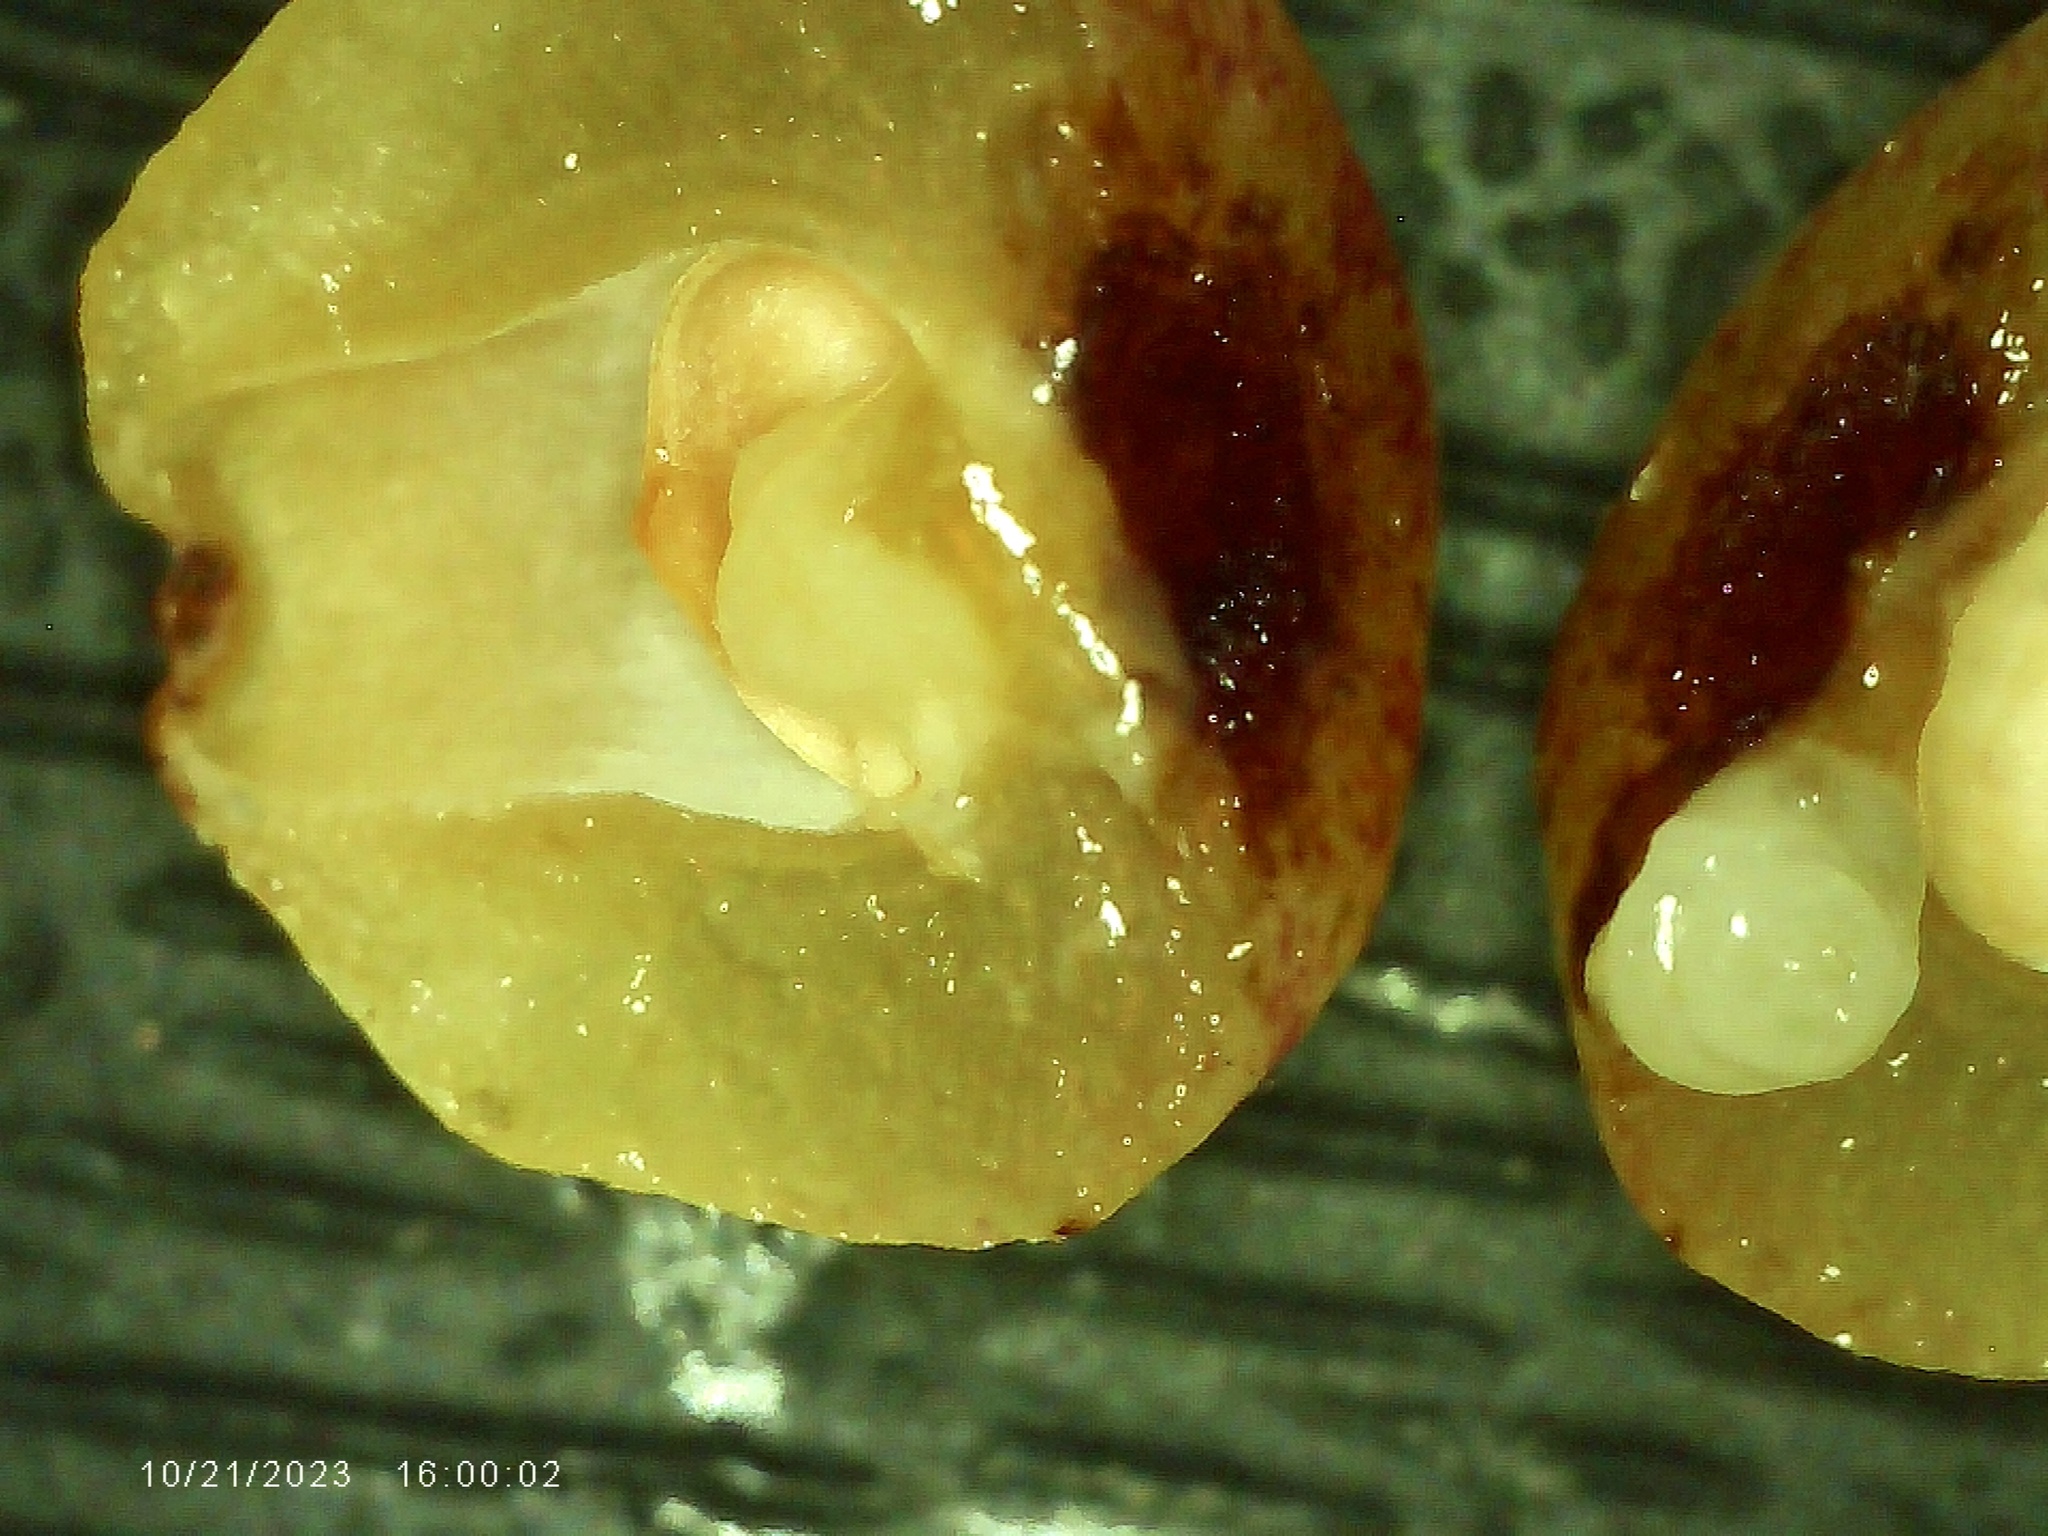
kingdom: Animalia
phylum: Arthropoda
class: Insecta
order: Hymenoptera
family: Cynipidae
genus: Andricus
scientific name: Andricus
